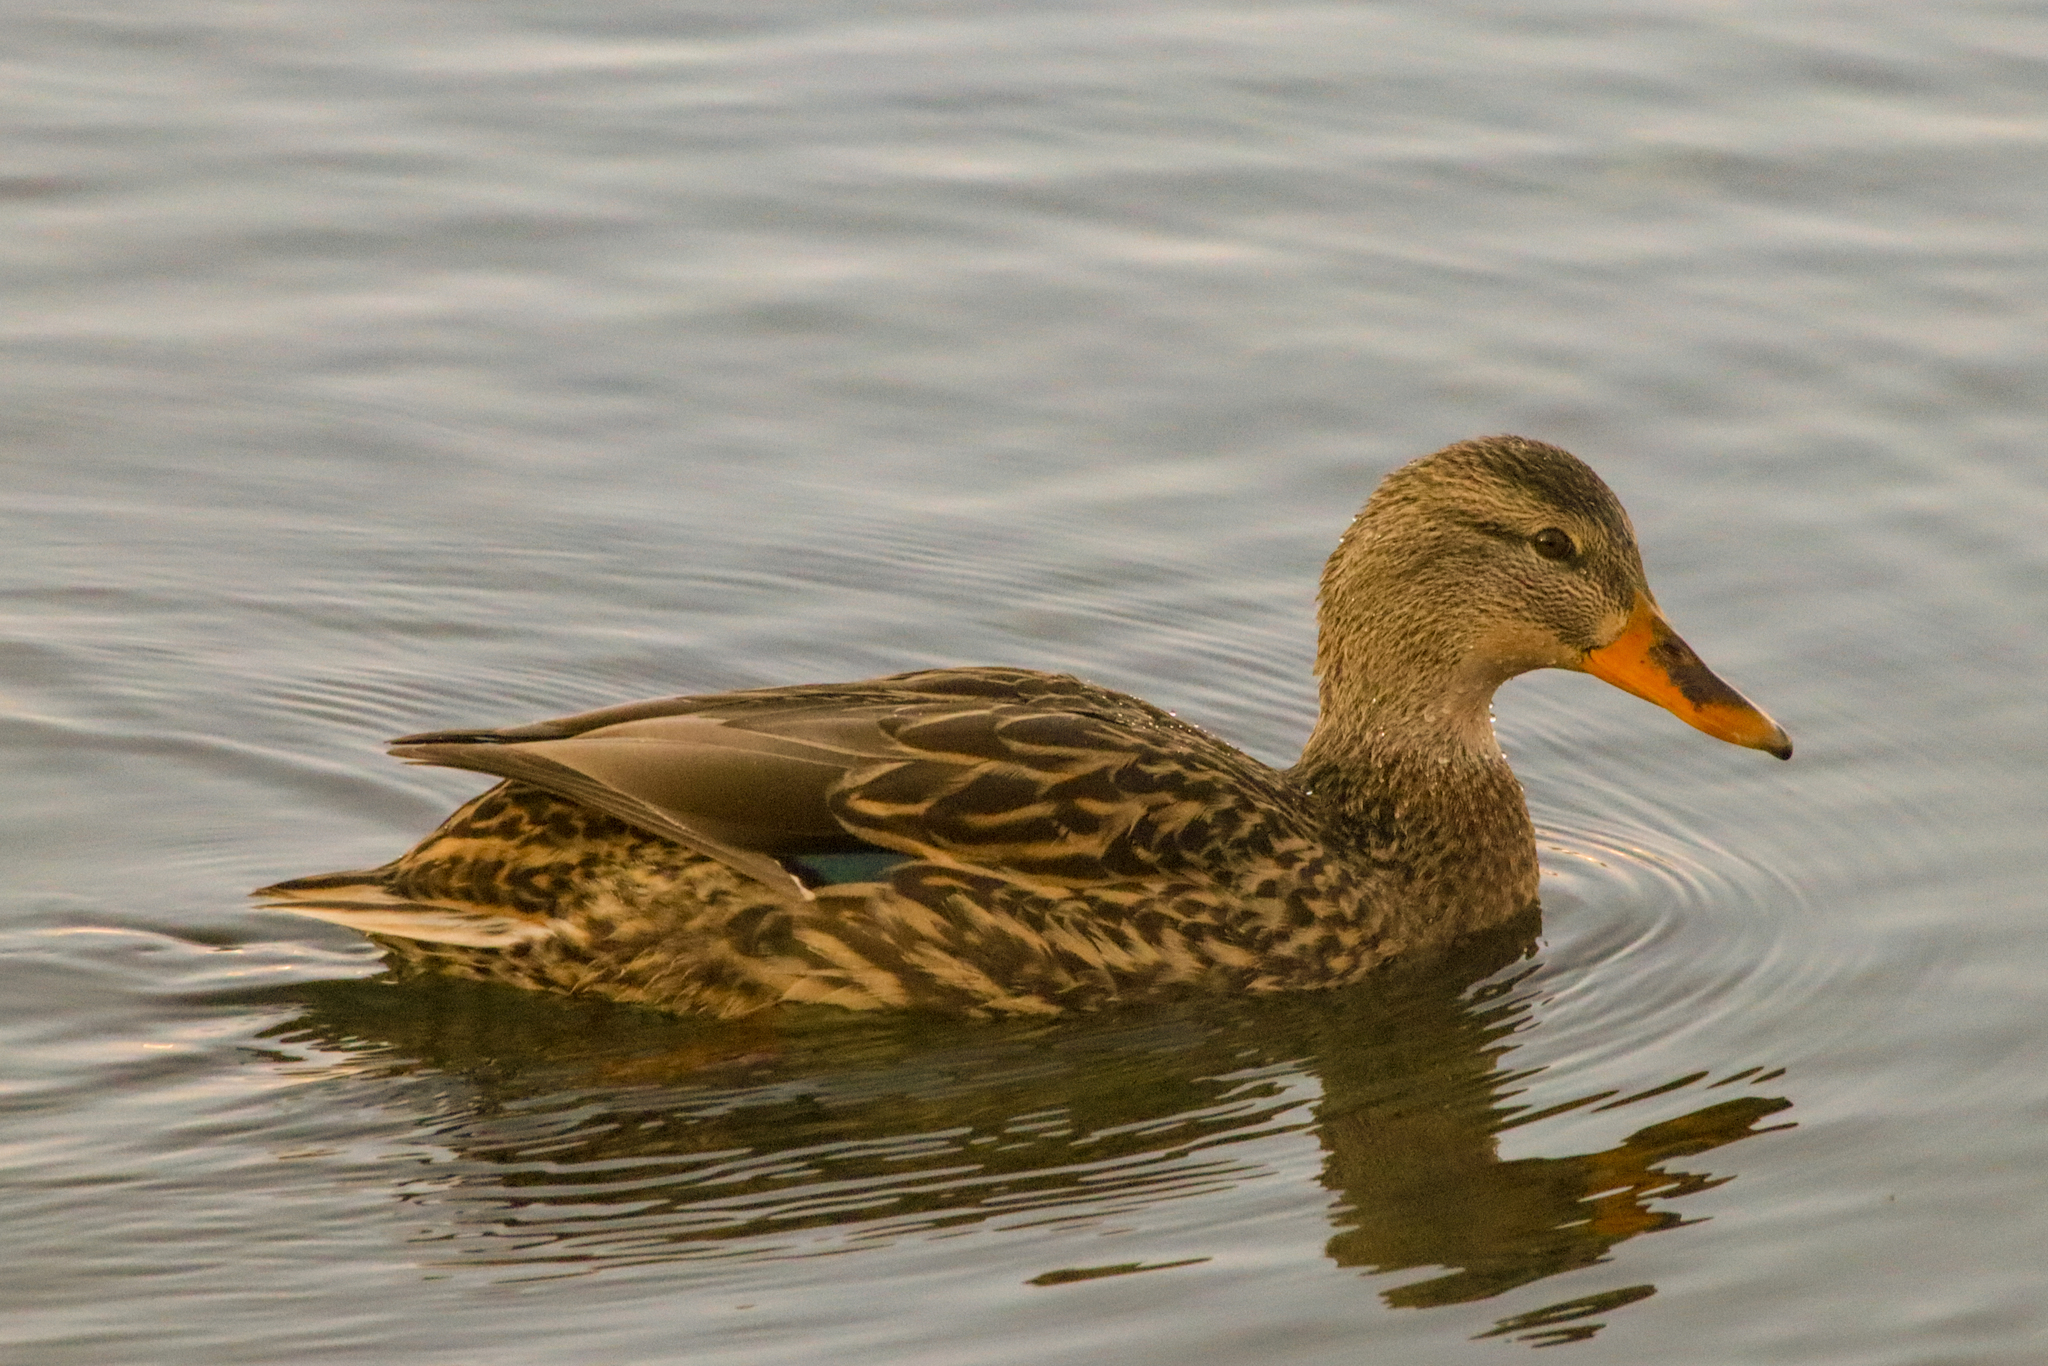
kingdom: Animalia
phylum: Chordata
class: Aves
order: Anseriformes
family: Anatidae
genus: Anas
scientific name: Anas platyrhynchos
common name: Mallard
